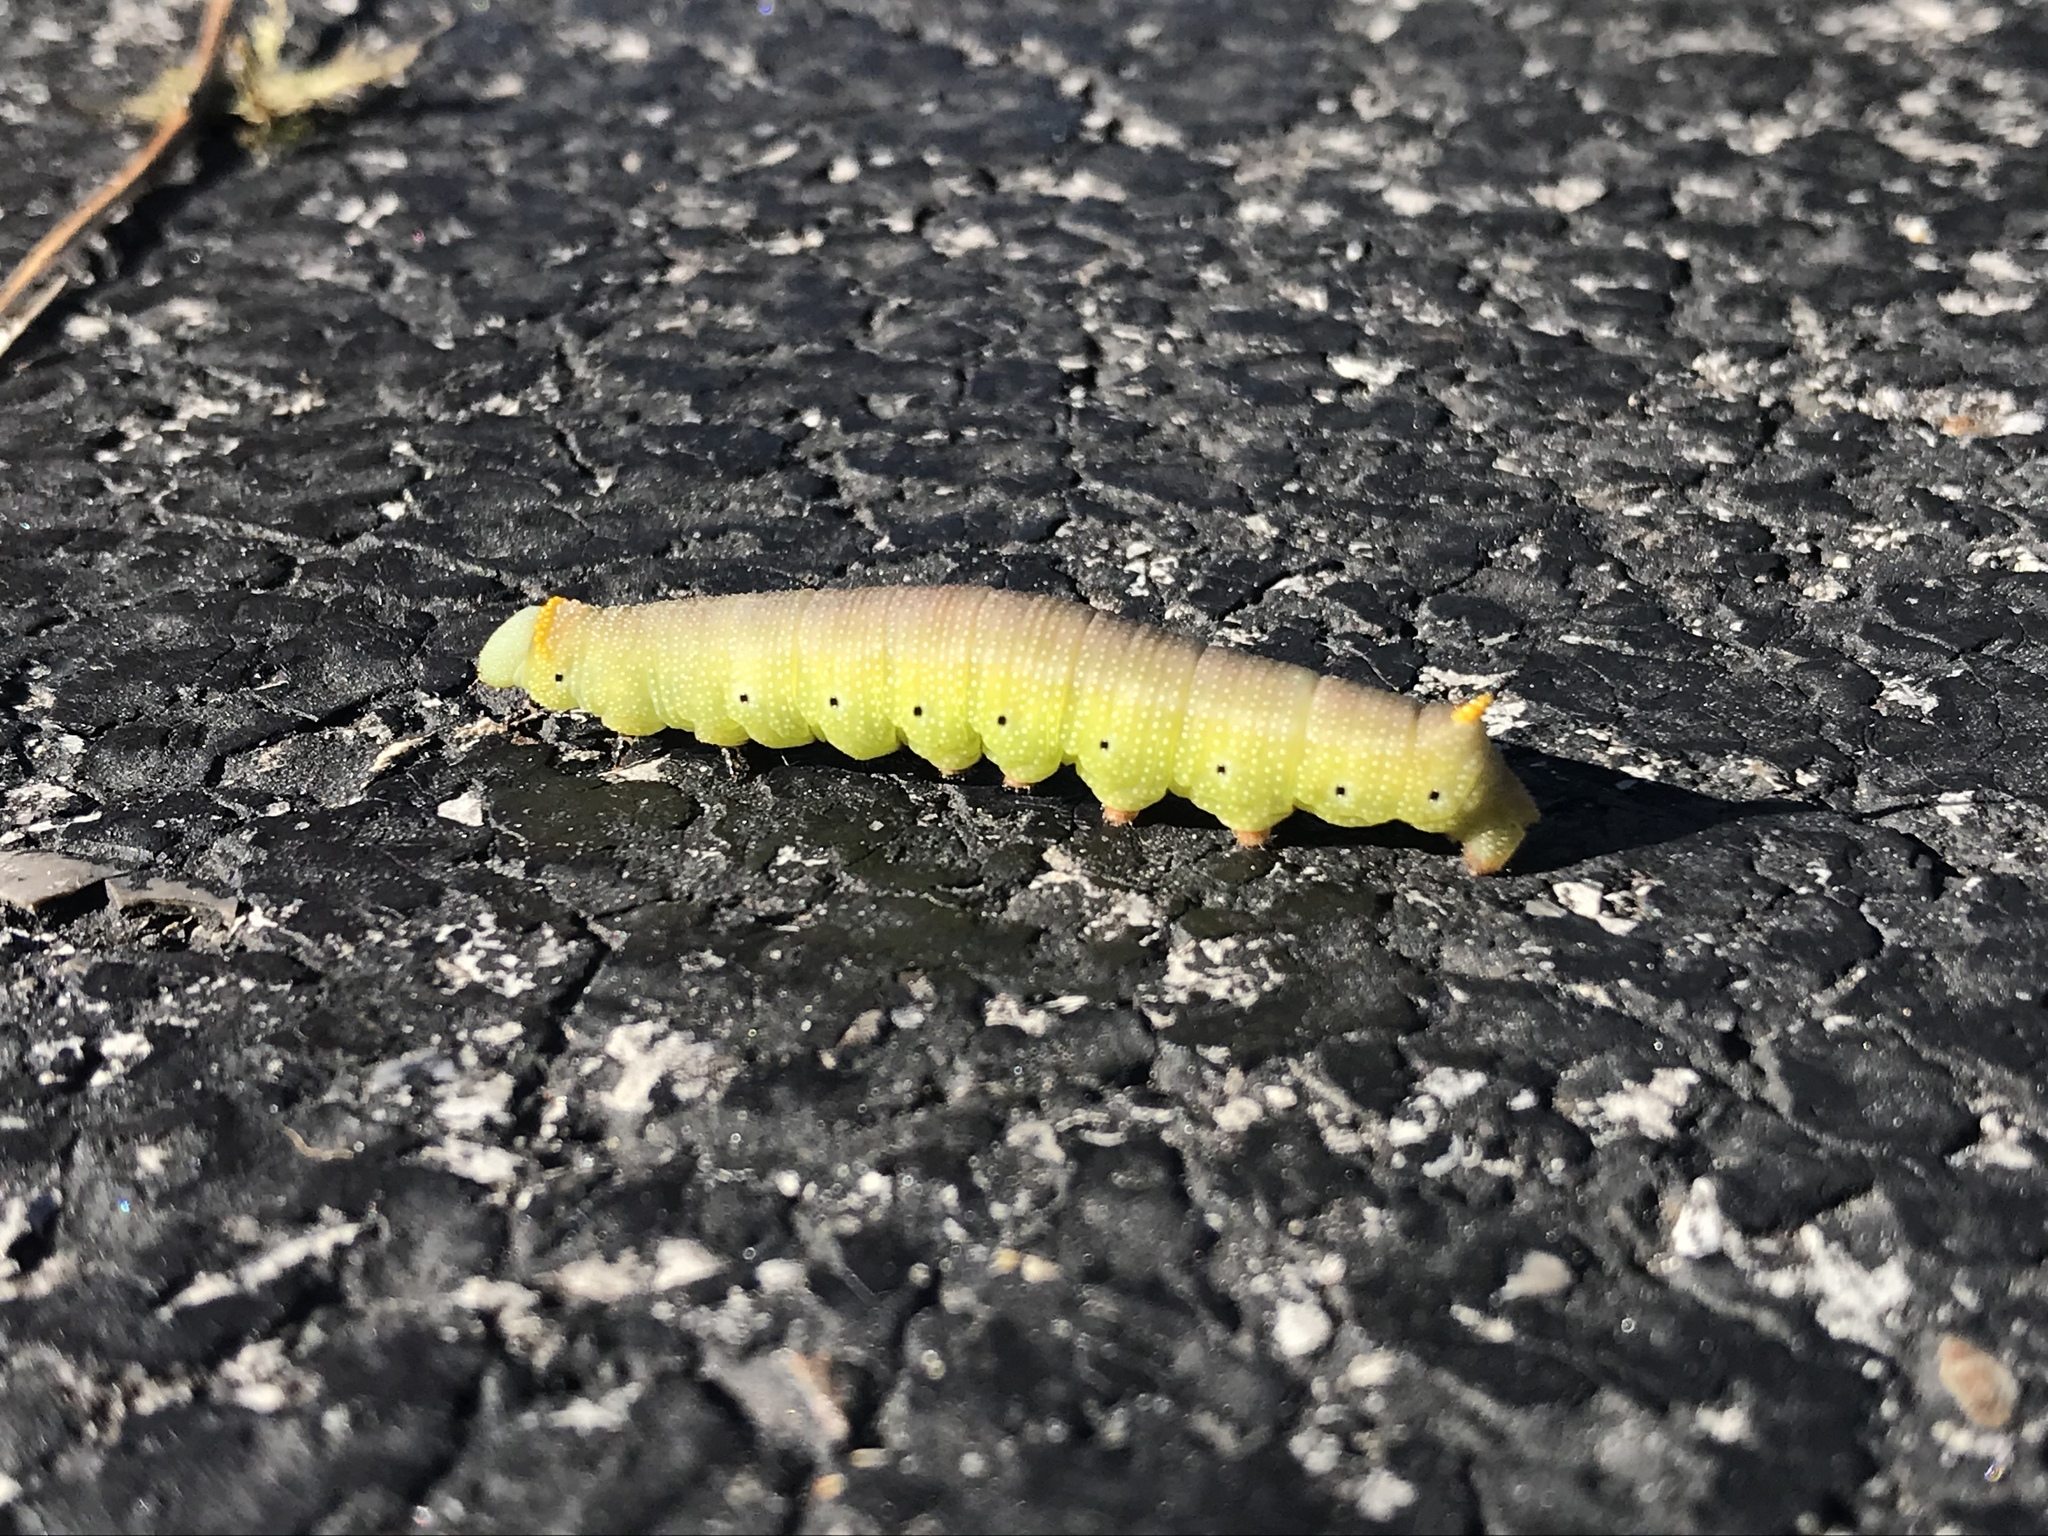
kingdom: Animalia
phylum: Arthropoda
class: Insecta
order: Lepidoptera
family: Sphingidae
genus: Hemaris
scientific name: Hemaris diffinis
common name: Bumblebee moth
